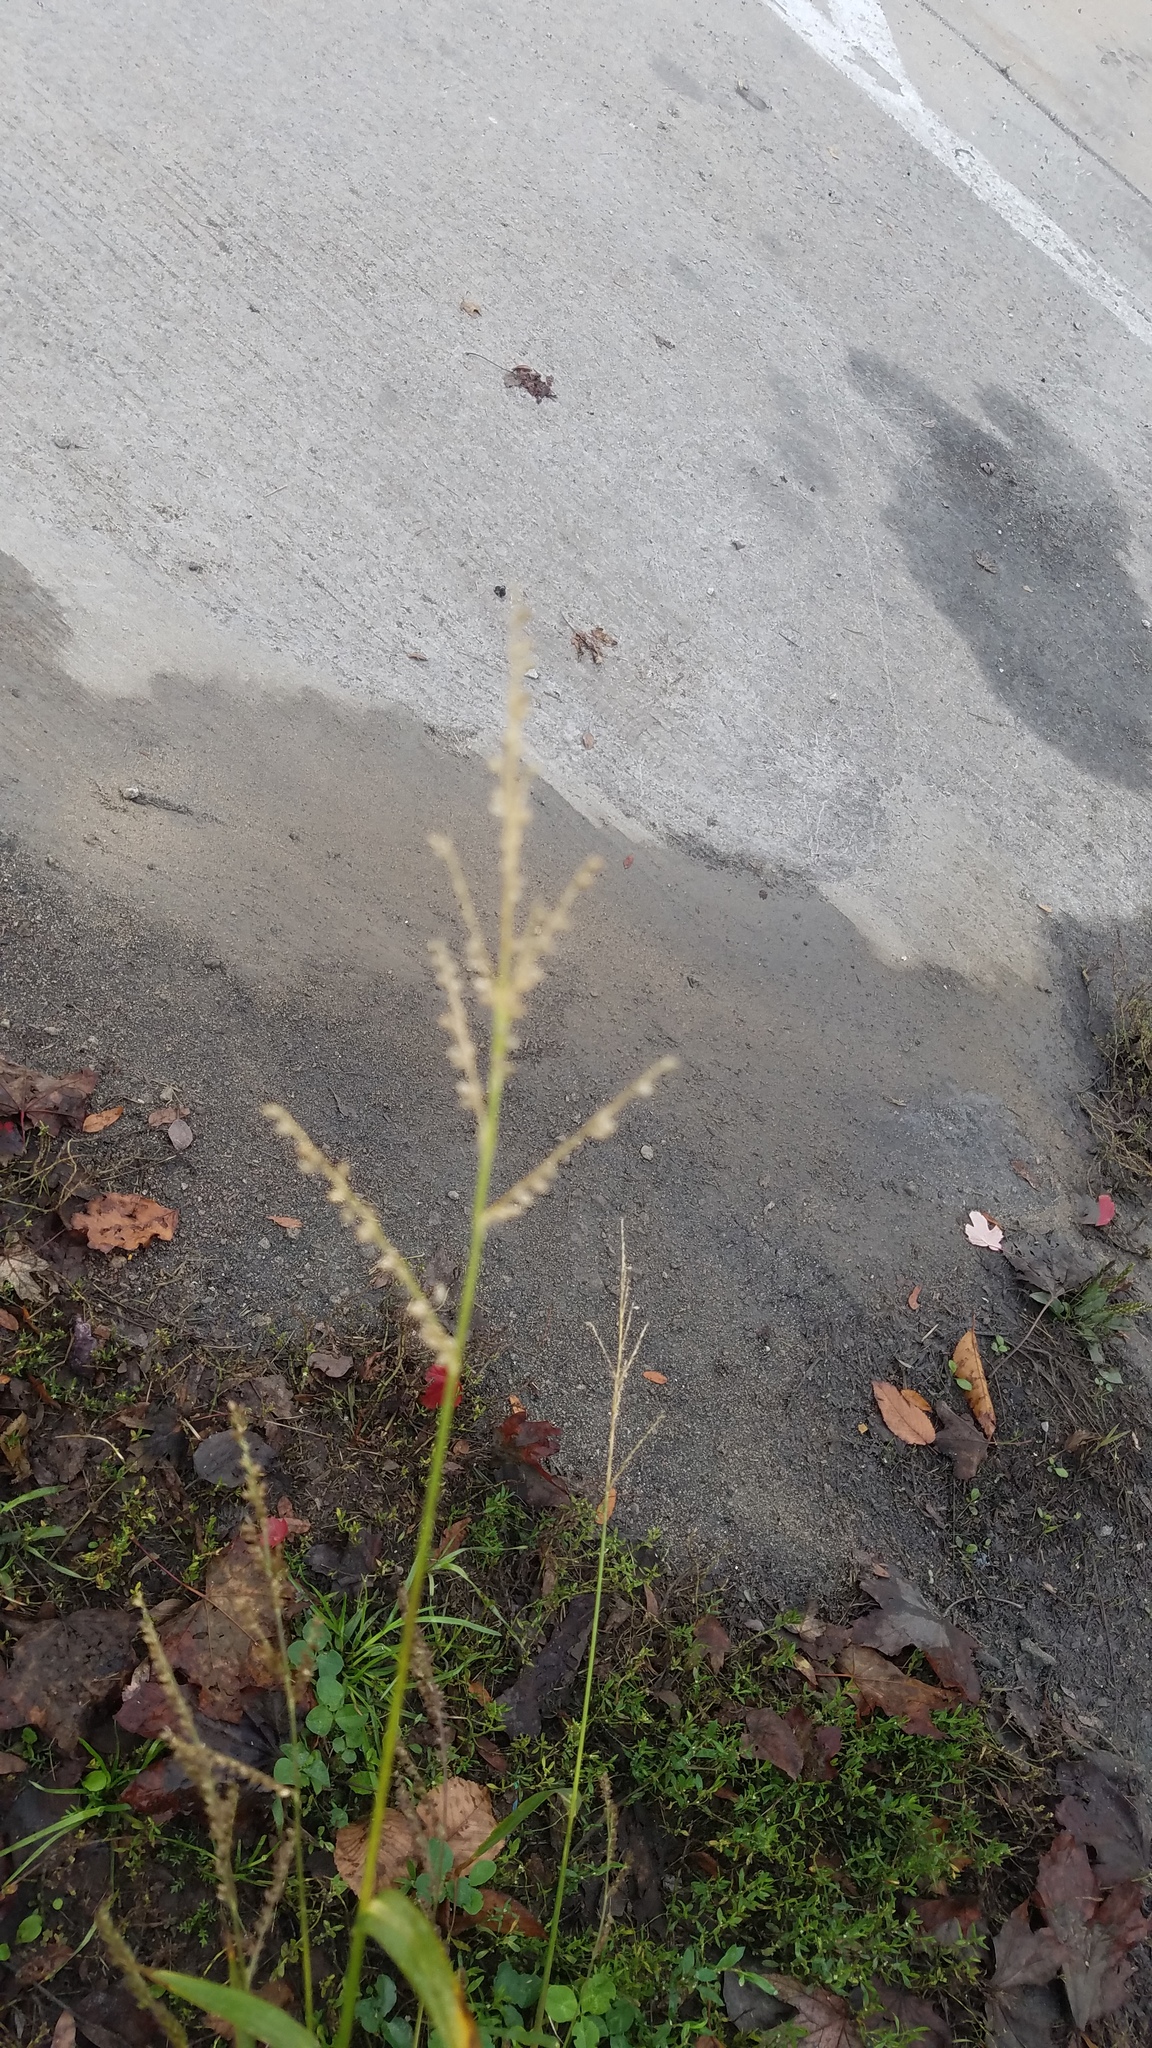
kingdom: Plantae
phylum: Tracheophyta
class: Liliopsida
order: Poales
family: Poaceae
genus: Echinochloa
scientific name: Echinochloa crus-galli
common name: Cockspur
